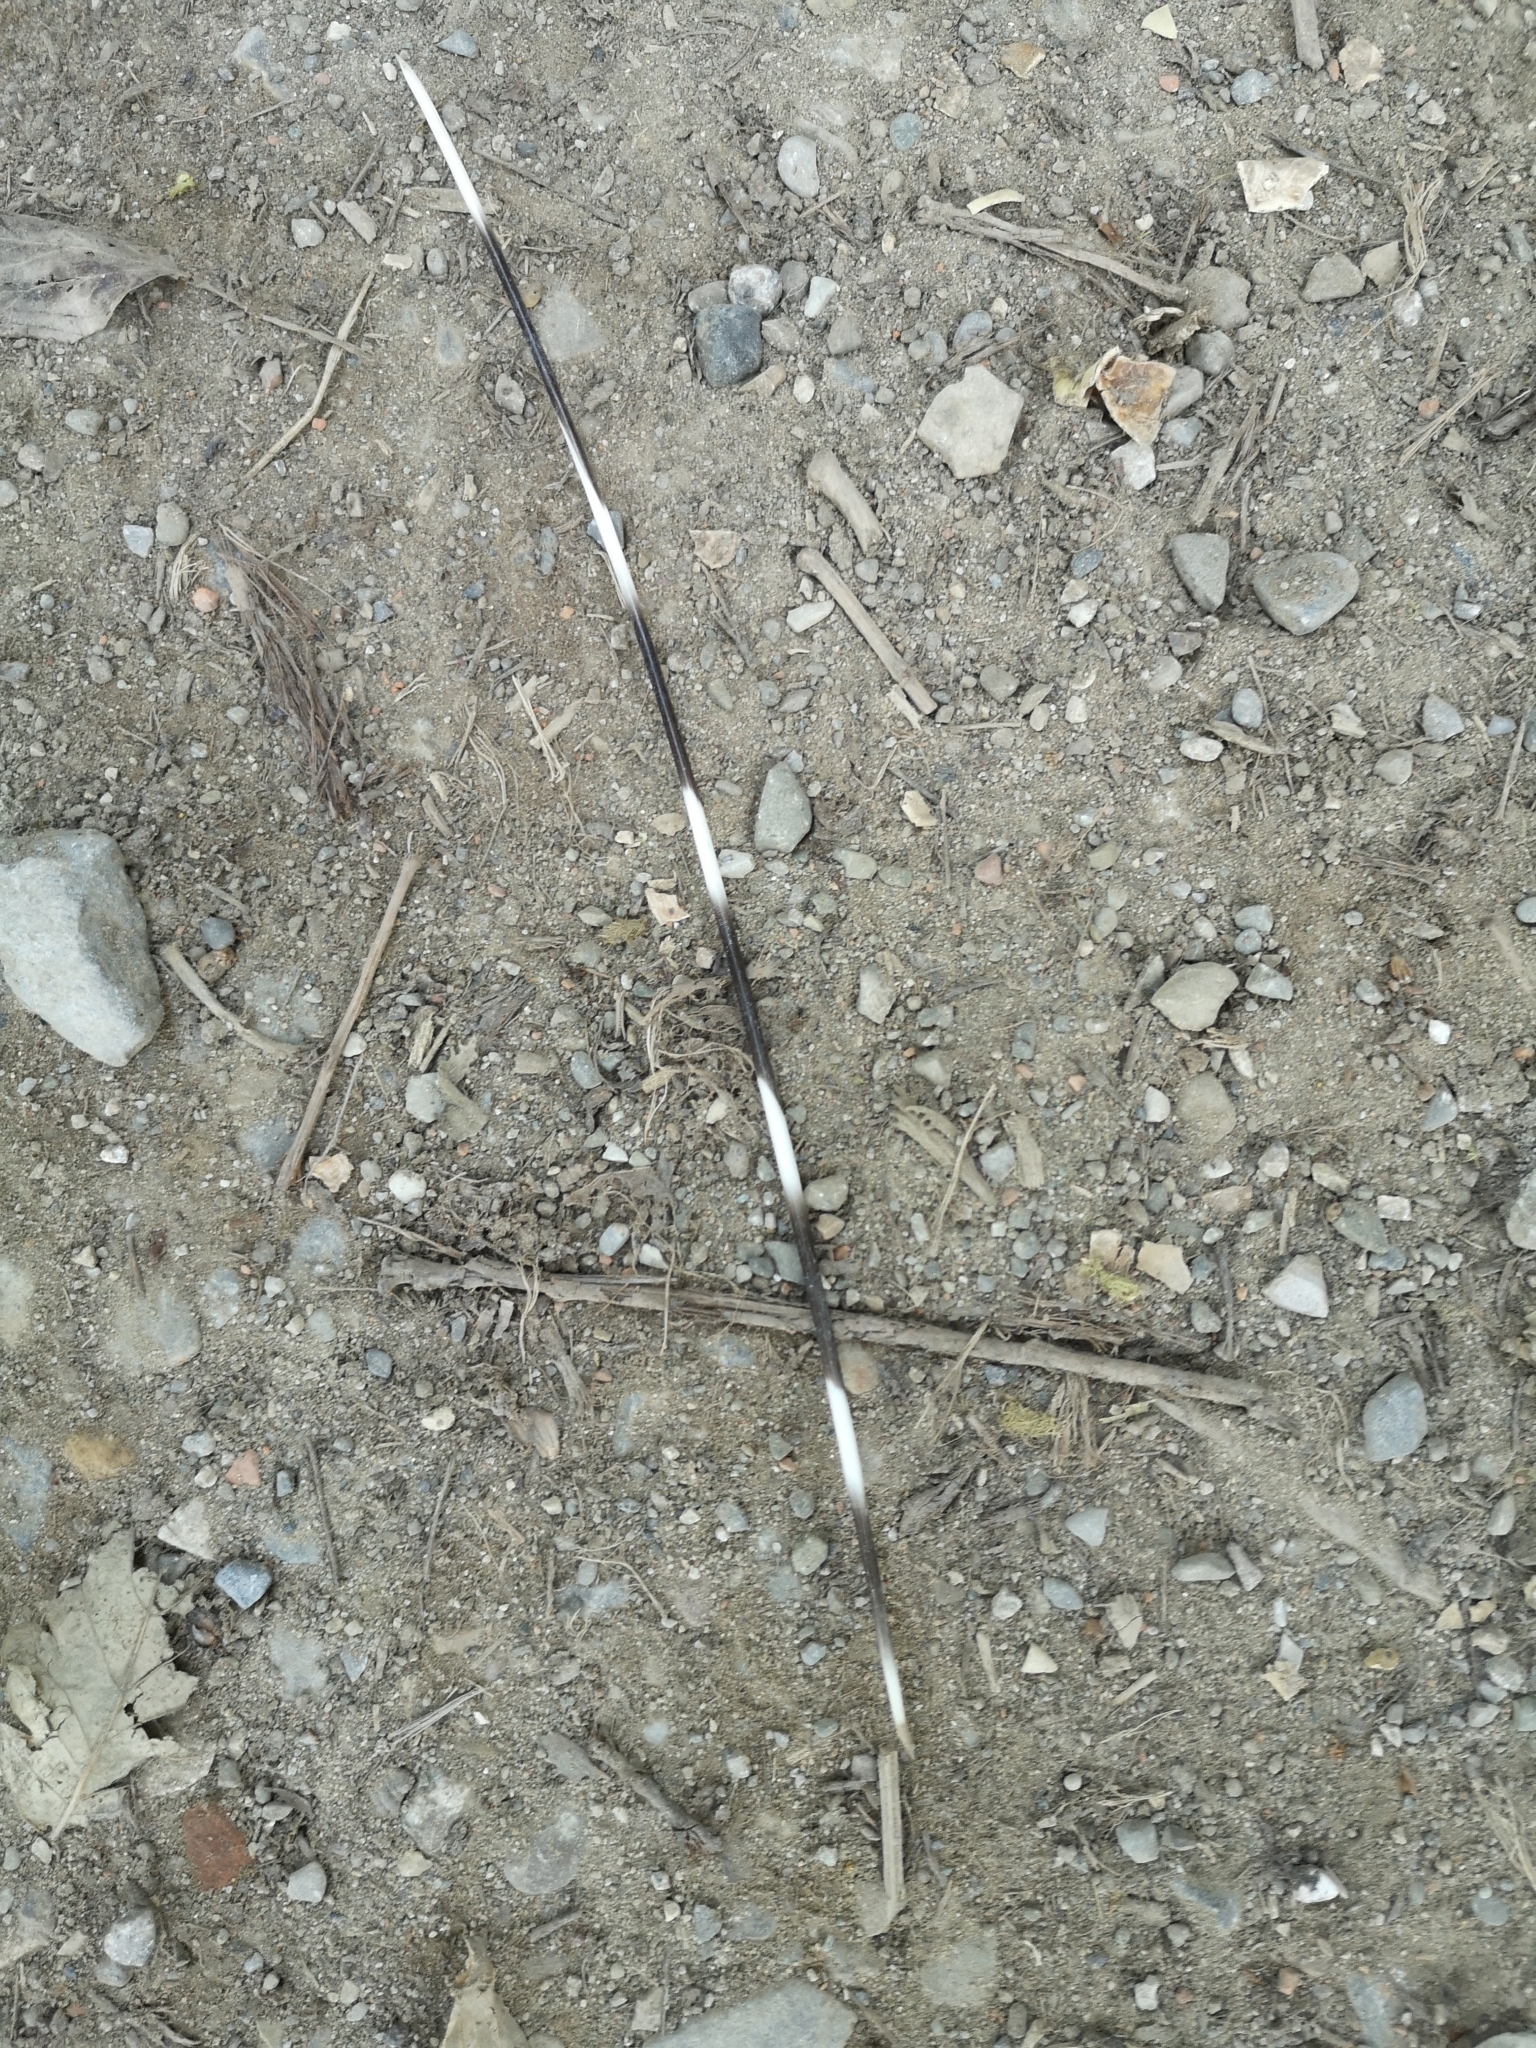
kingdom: Animalia
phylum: Chordata
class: Mammalia
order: Rodentia
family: Hystricidae
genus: Hystrix
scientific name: Hystrix cristata
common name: Crested porcupine
